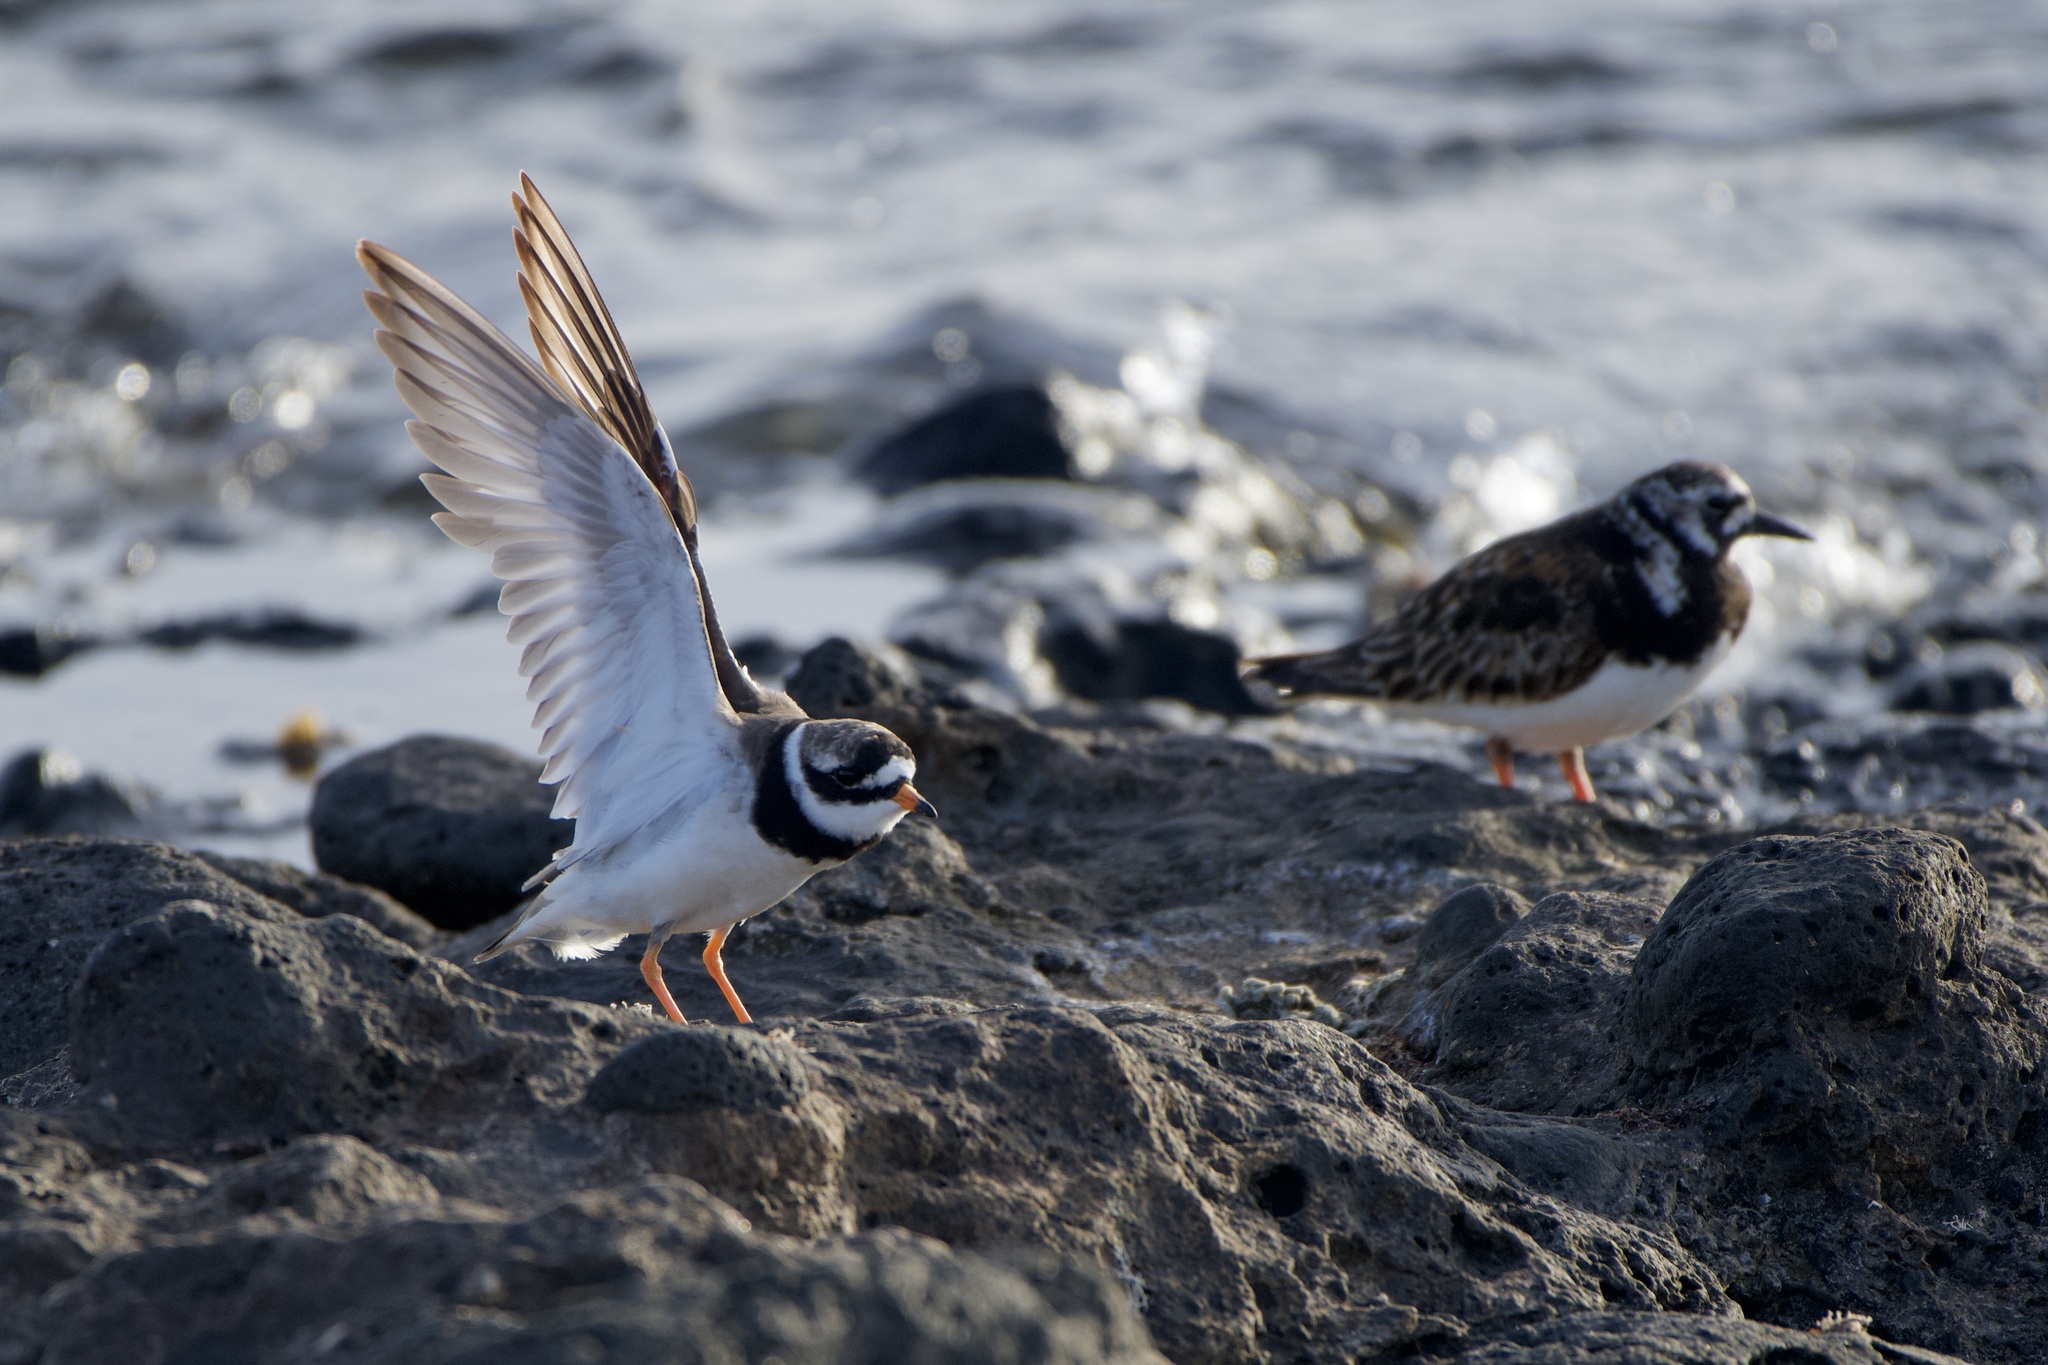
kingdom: Animalia
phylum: Chordata
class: Aves
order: Charadriiformes
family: Charadriidae
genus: Charadrius
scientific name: Charadrius hiaticula
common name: Common ringed plover
